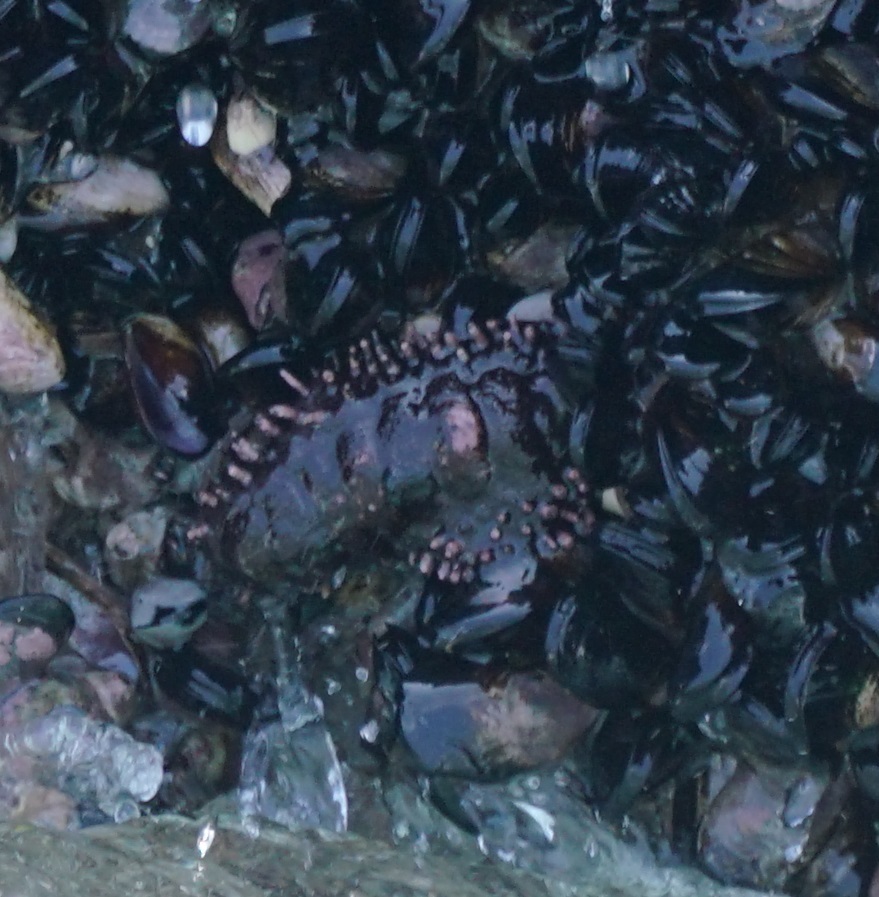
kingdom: Animalia
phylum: Mollusca
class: Polyplacophora
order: Chitonida
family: Chitonidae
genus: Enoplochiton
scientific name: Enoplochiton echinatus
